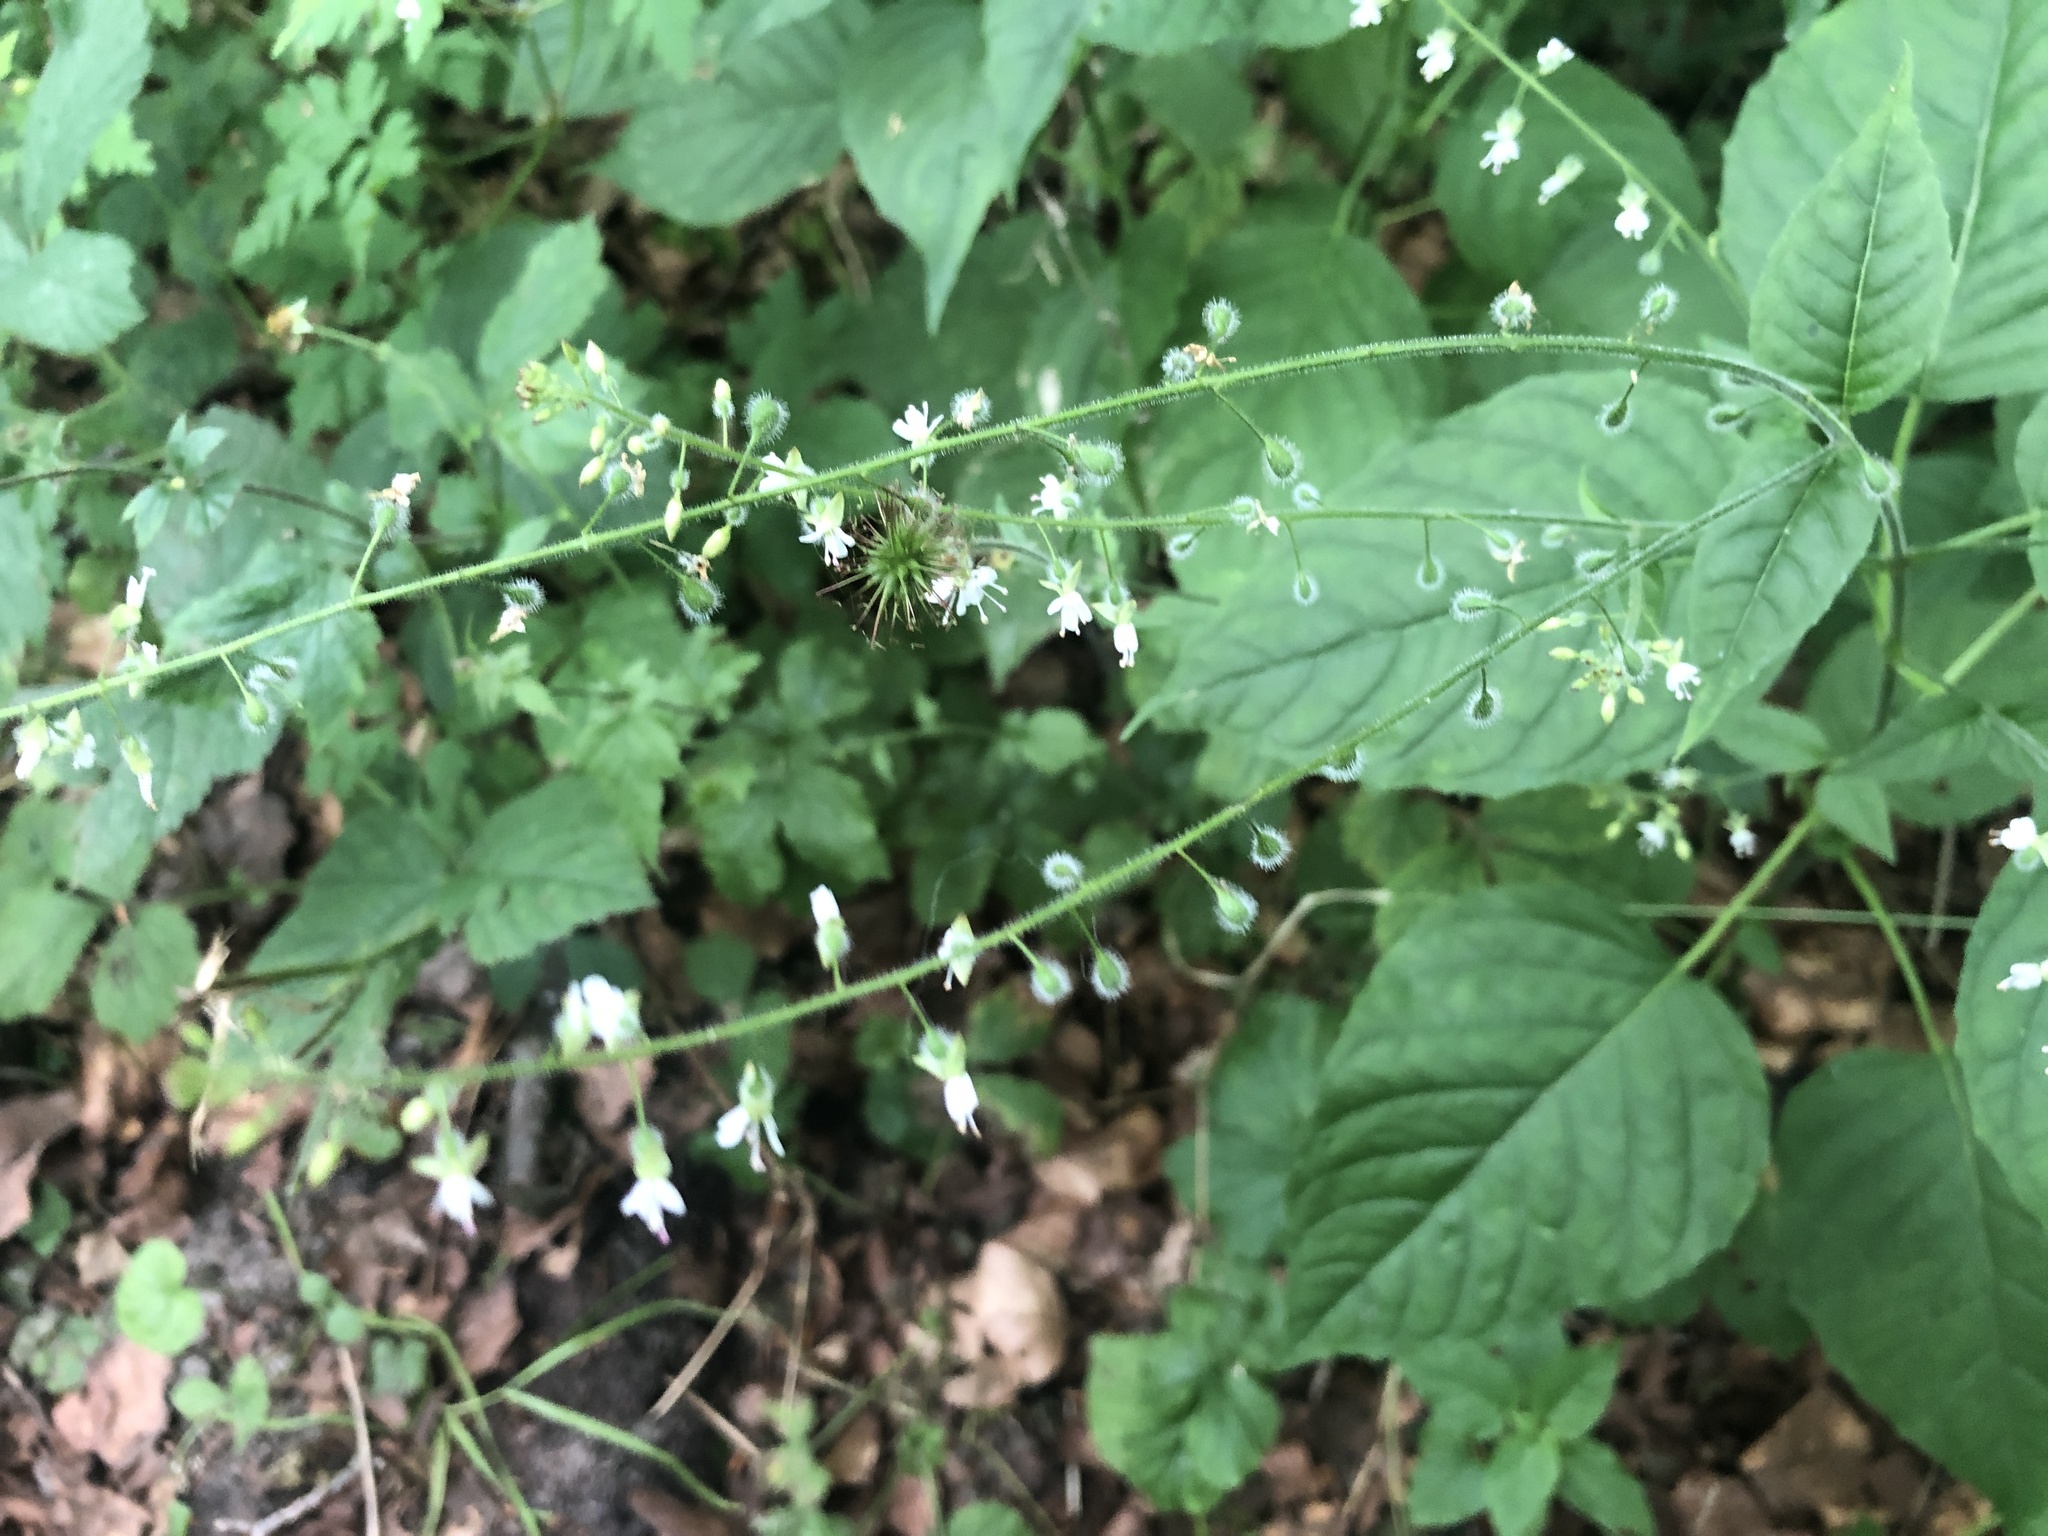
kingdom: Plantae
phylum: Tracheophyta
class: Magnoliopsida
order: Myrtales
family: Onagraceae
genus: Circaea
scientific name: Circaea lutetiana
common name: Enchanter's-nightshade
